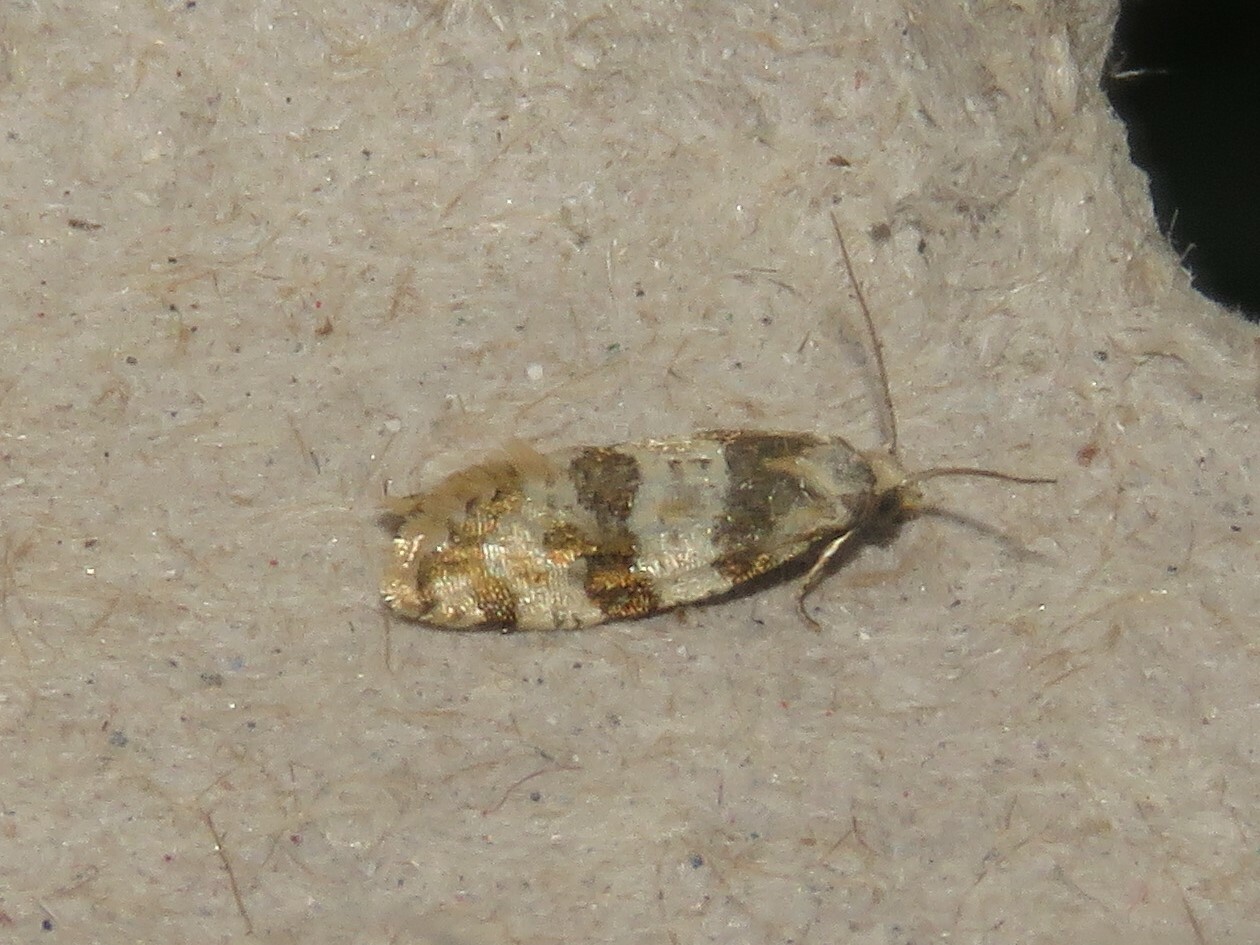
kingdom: Animalia
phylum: Arthropoda
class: Insecta
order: Lepidoptera
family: Tortricidae
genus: Aethes
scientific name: Aethes argentilimitana
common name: Silver-bordered aethes
